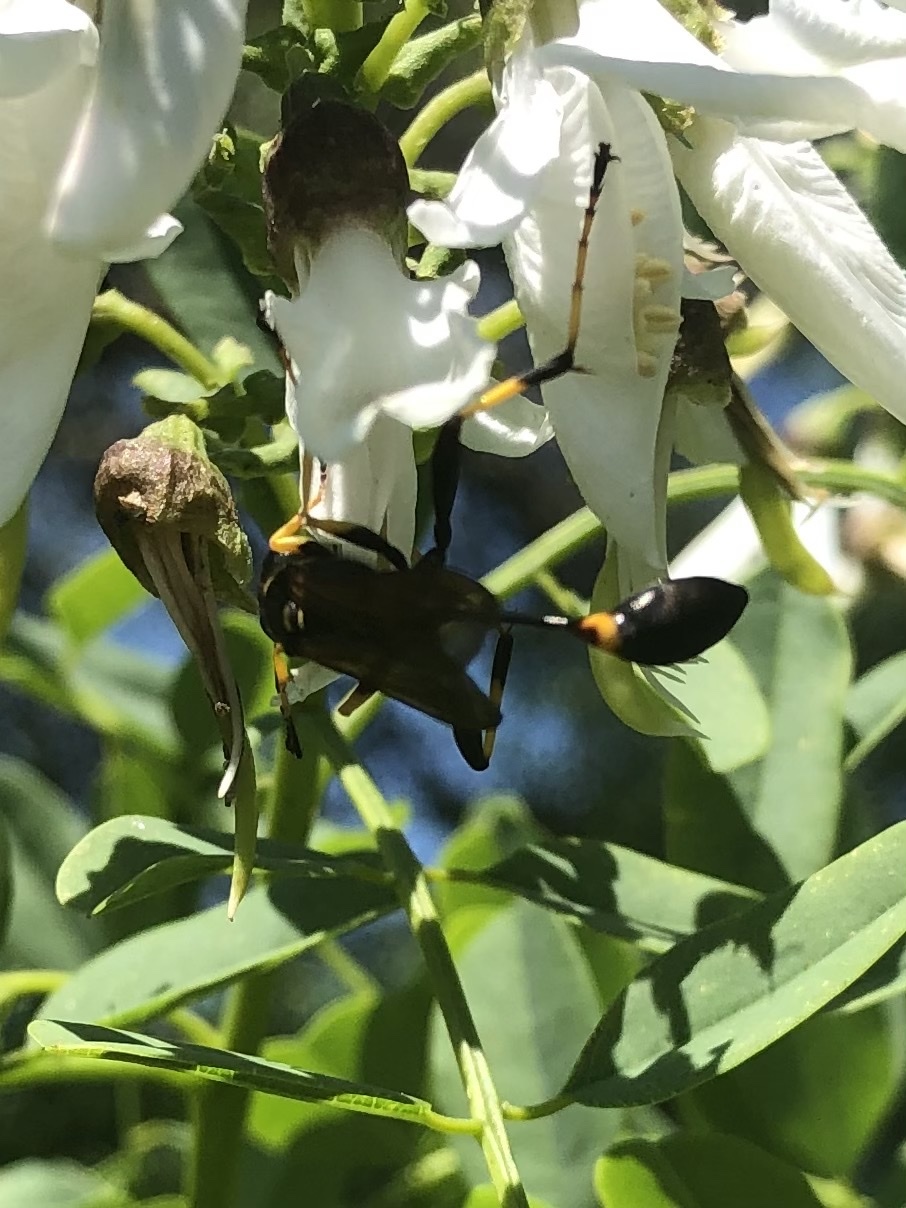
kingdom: Animalia
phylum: Arthropoda
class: Insecta
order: Hymenoptera
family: Sphecidae
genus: Sceliphron
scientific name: Sceliphron caementarium
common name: Mud dauber
